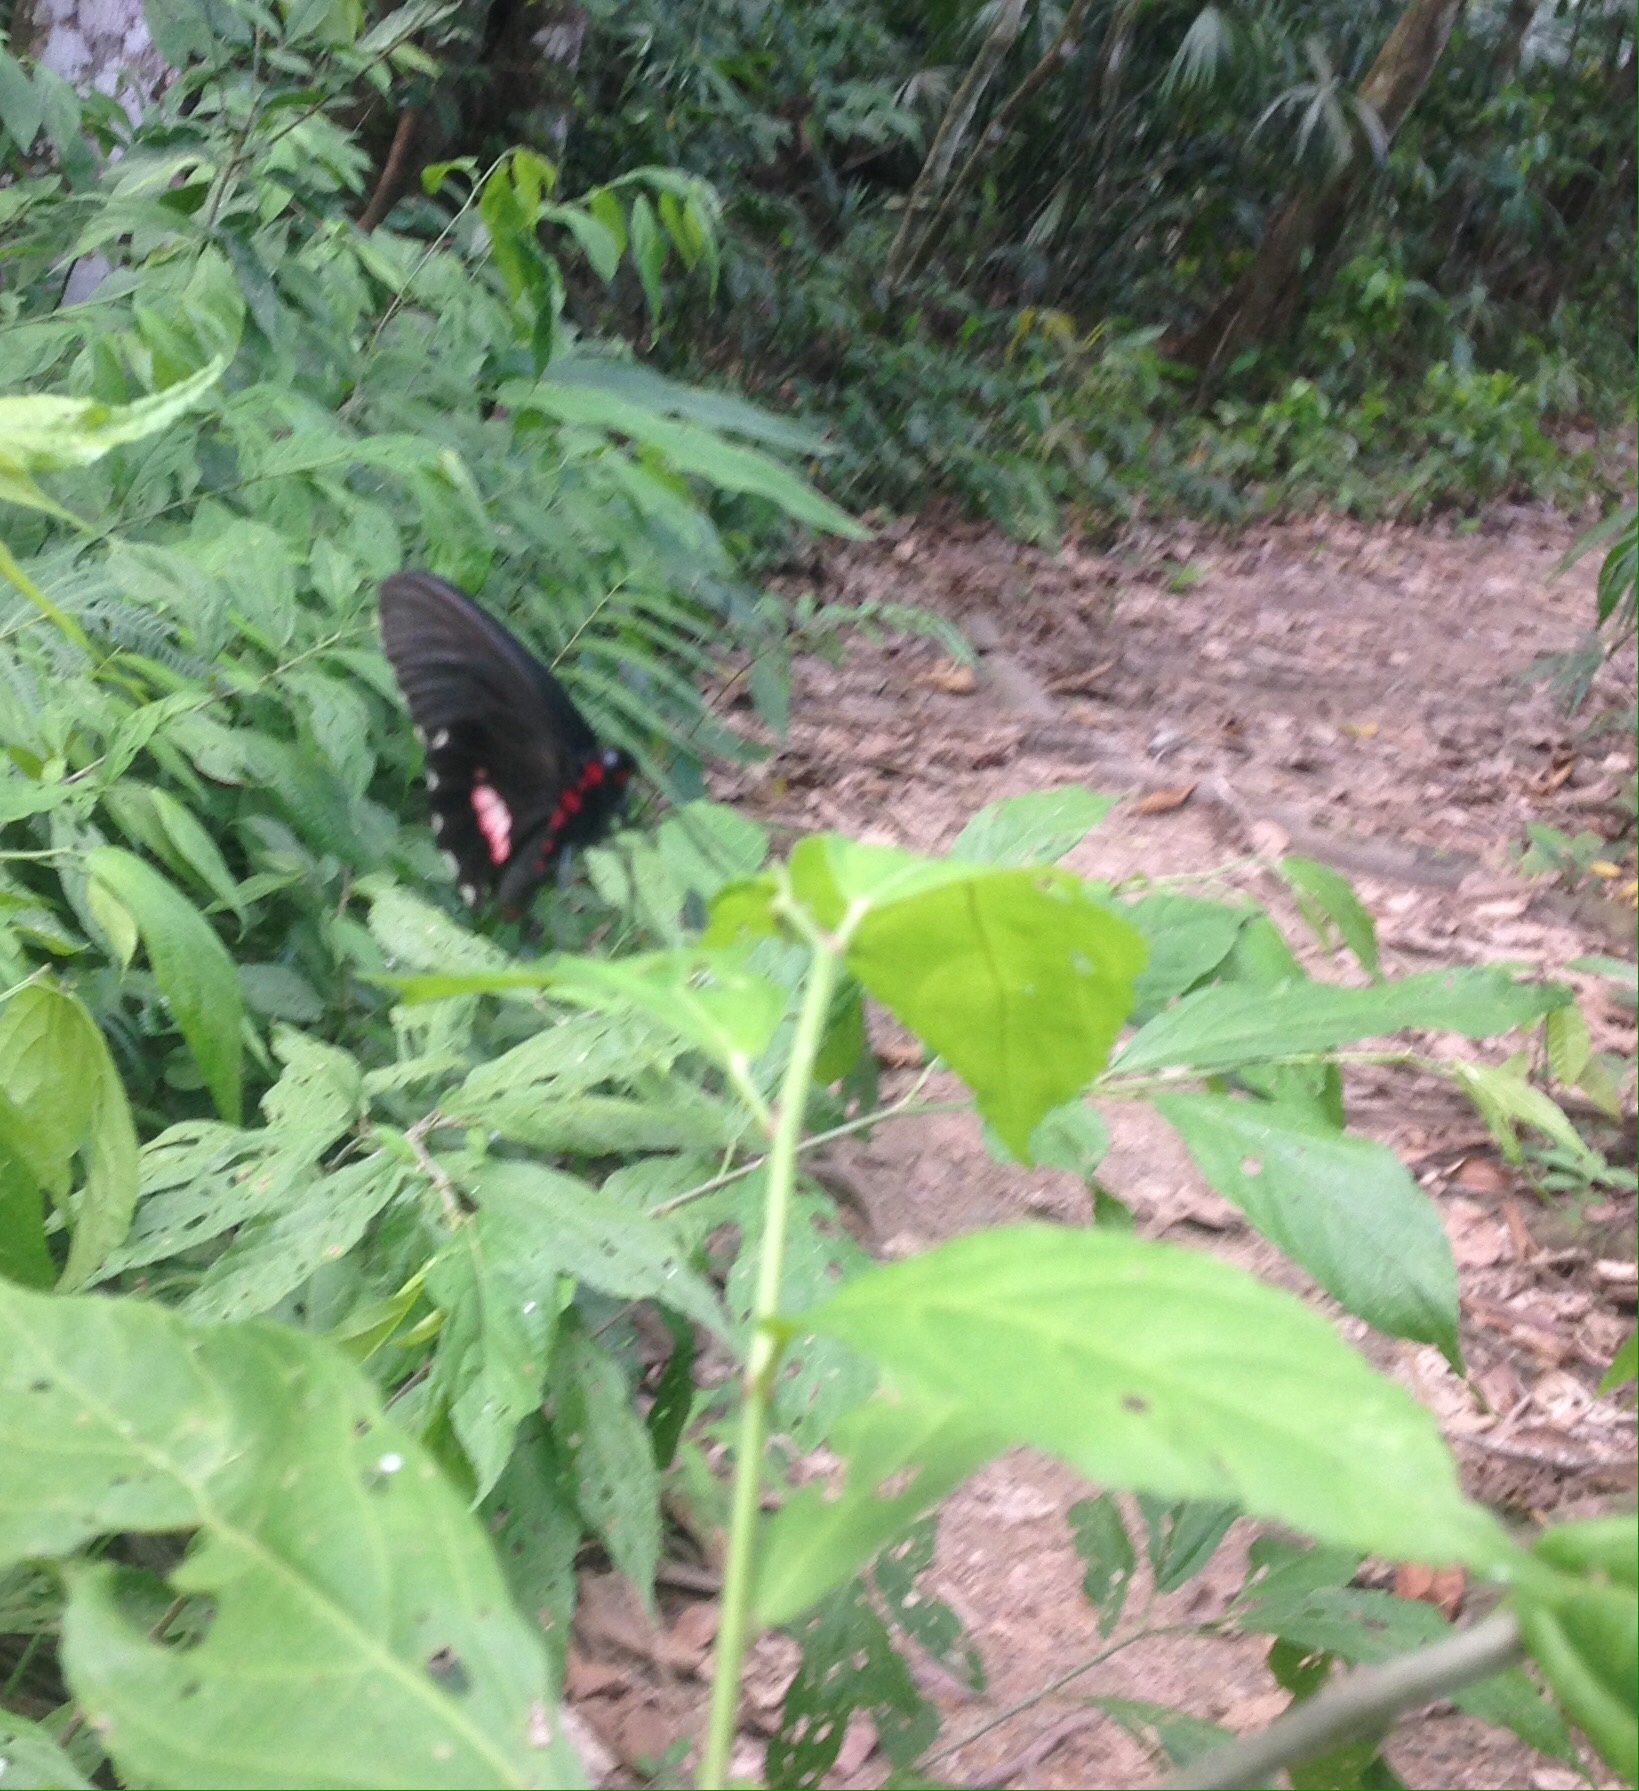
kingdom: Animalia
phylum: Arthropoda
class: Insecta
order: Lepidoptera
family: Papilionidae
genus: Parides
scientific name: Parides erithalion
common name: Variable cattleheart
